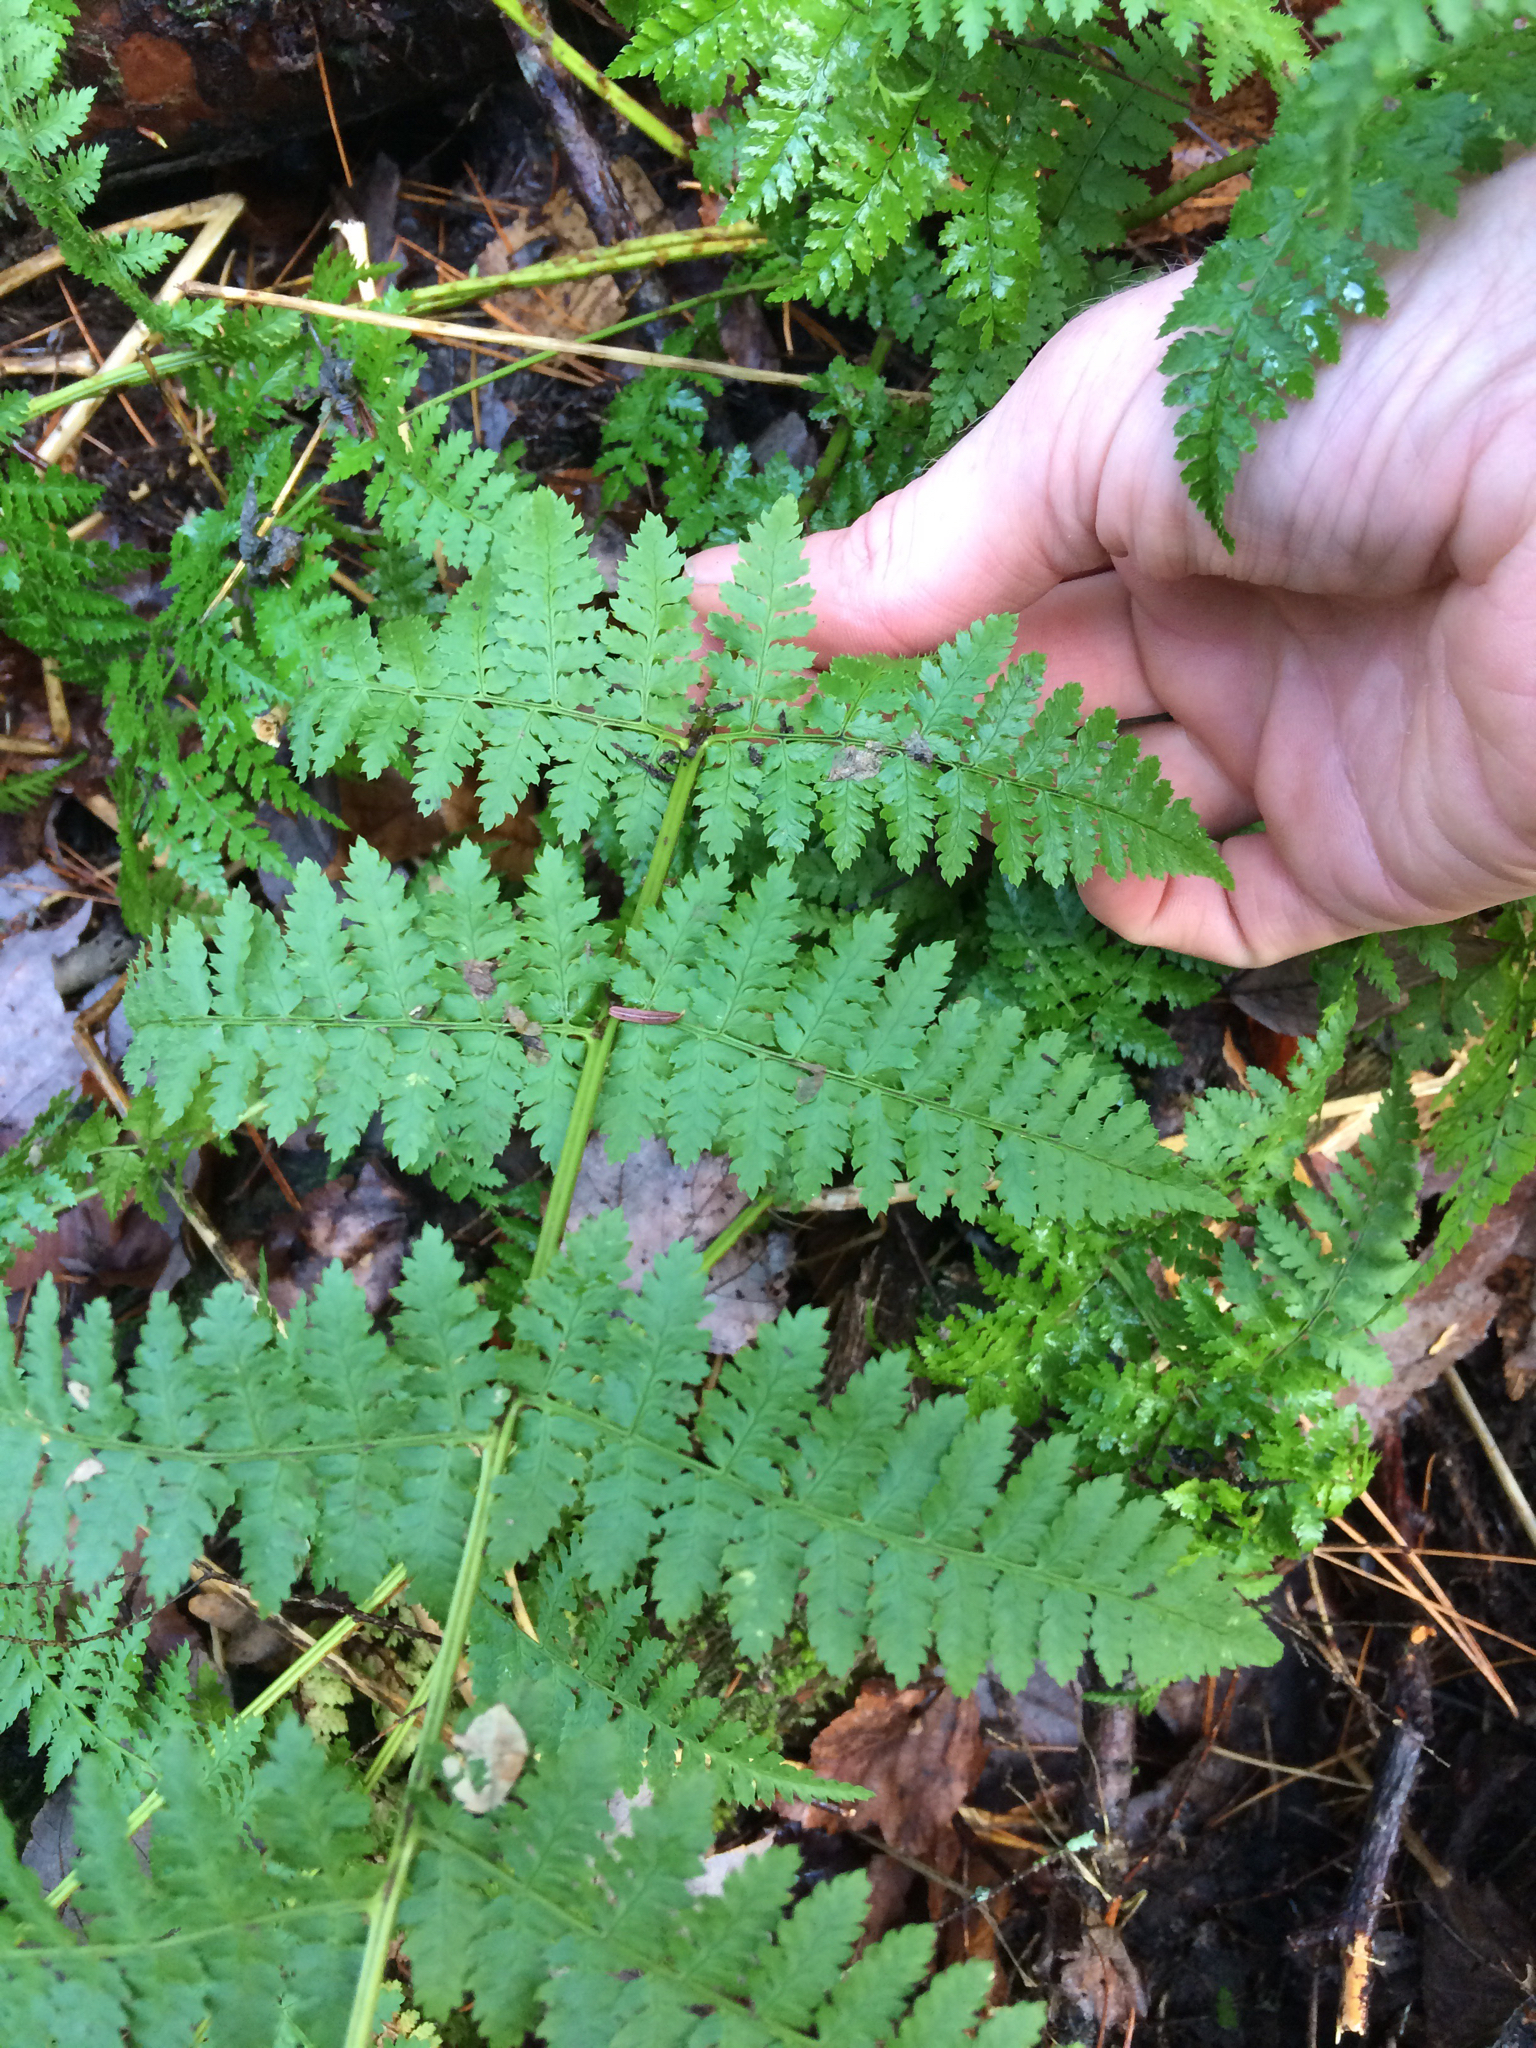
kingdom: Plantae
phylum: Tracheophyta
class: Polypodiopsida
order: Polypodiales
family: Dryopteridaceae
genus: Dryopteris
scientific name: Dryopteris intermedia
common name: Evergreen wood fern
